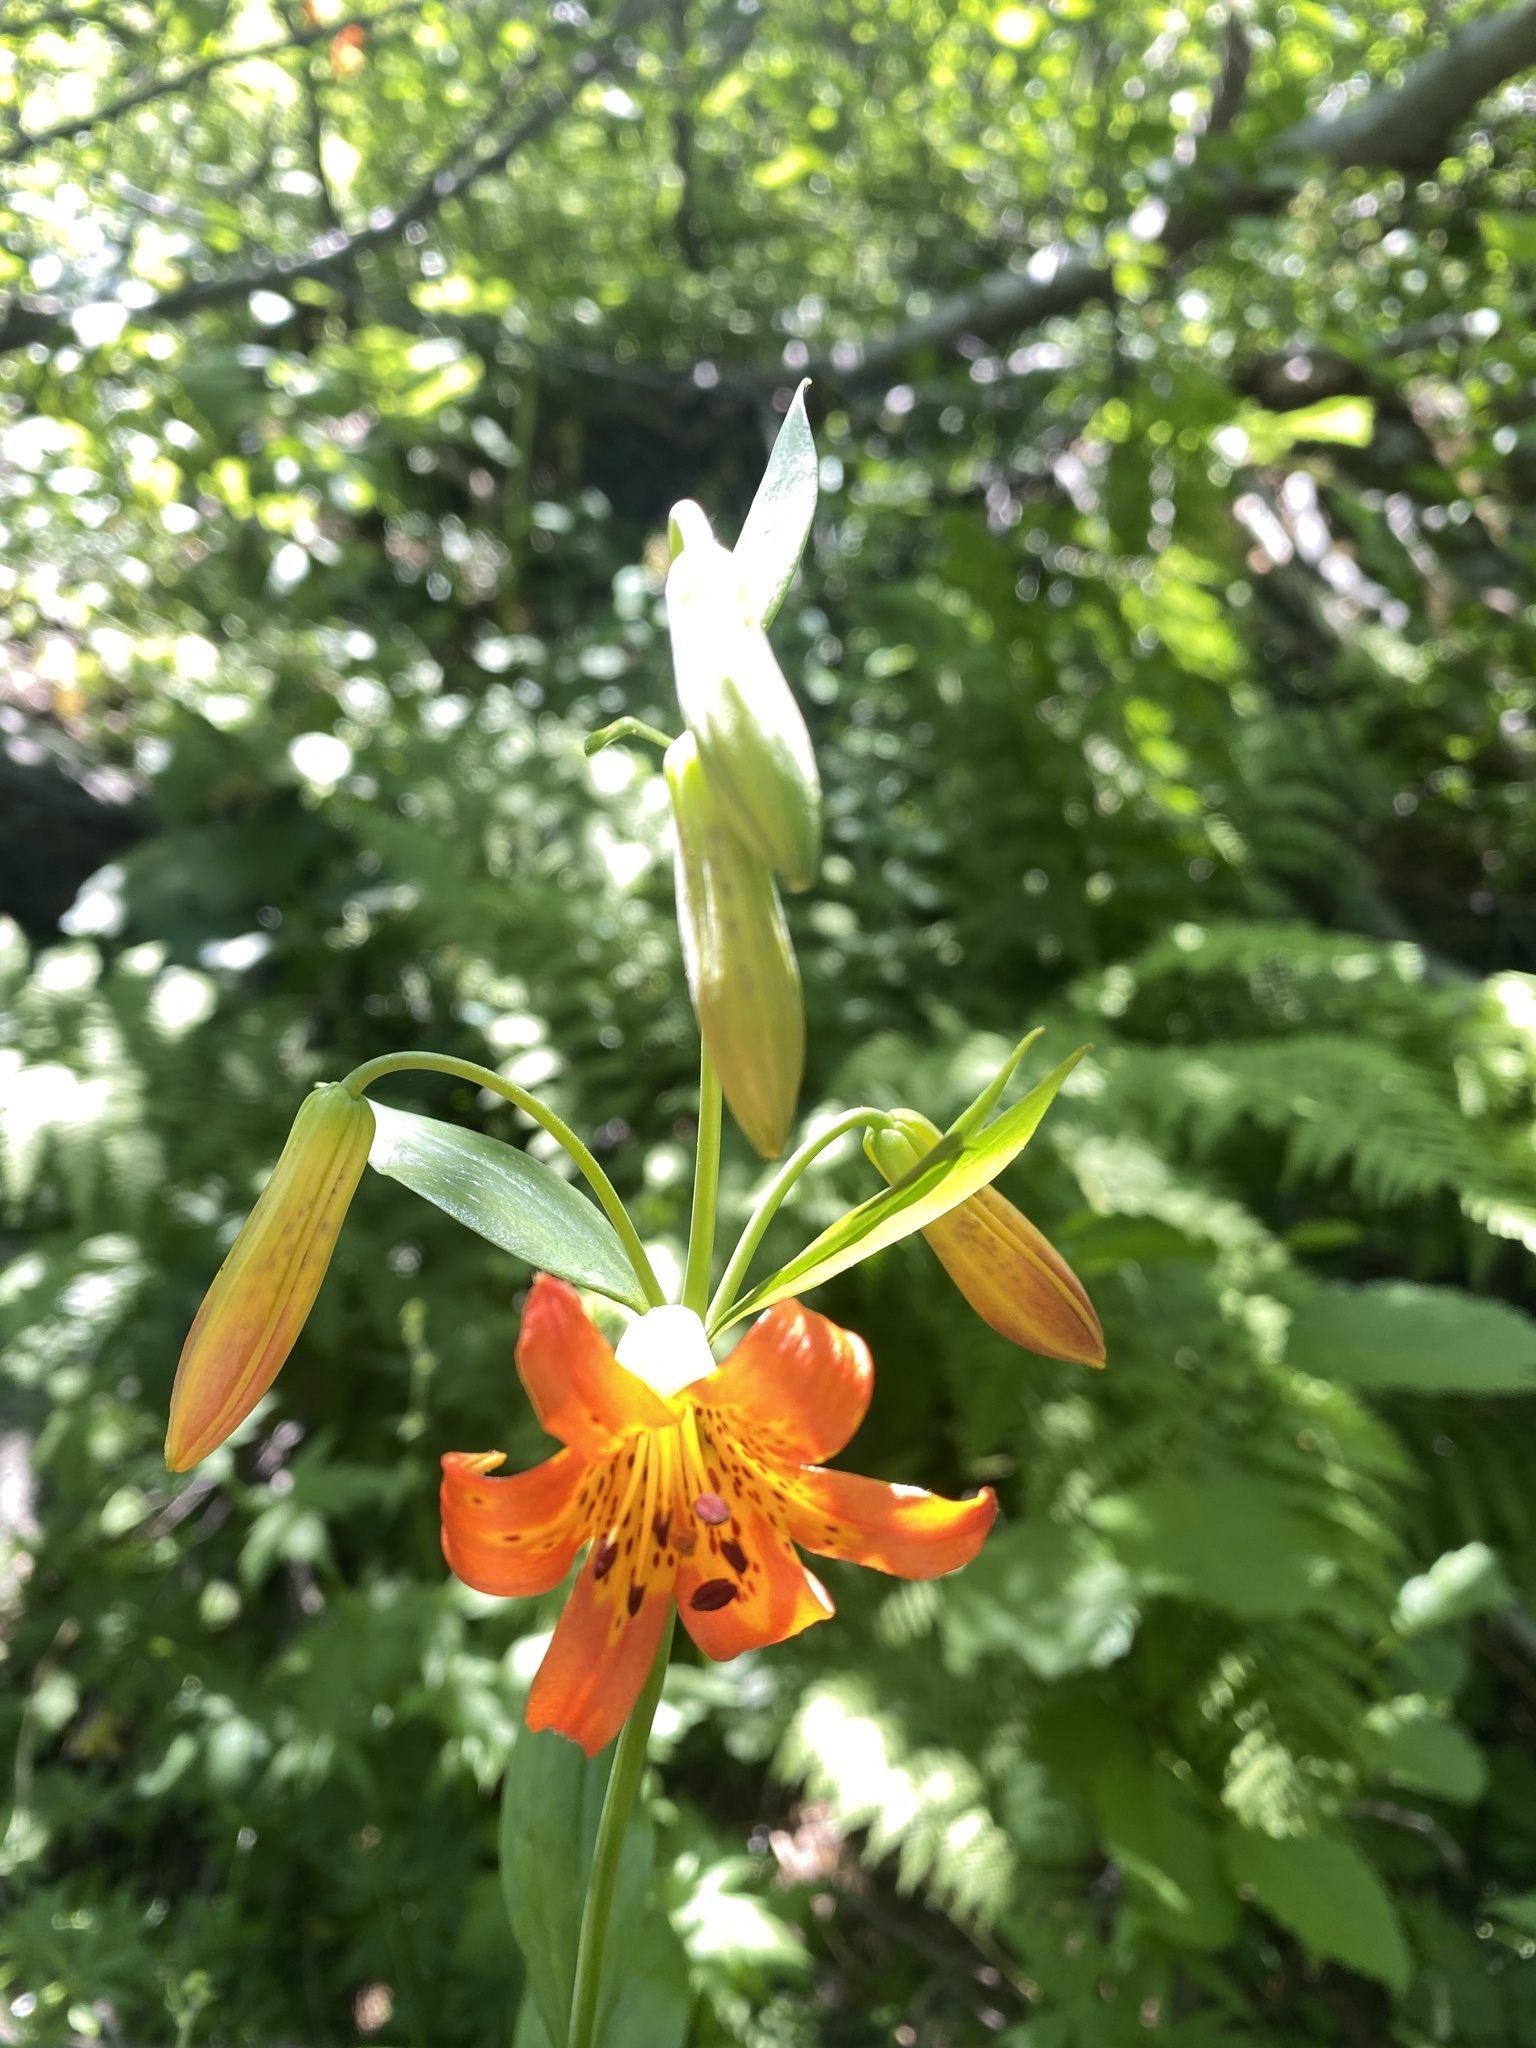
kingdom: Plantae
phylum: Tracheophyta
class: Liliopsida
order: Liliales
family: Liliaceae
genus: Lilium
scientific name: Lilium parvum
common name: Alpine lily
